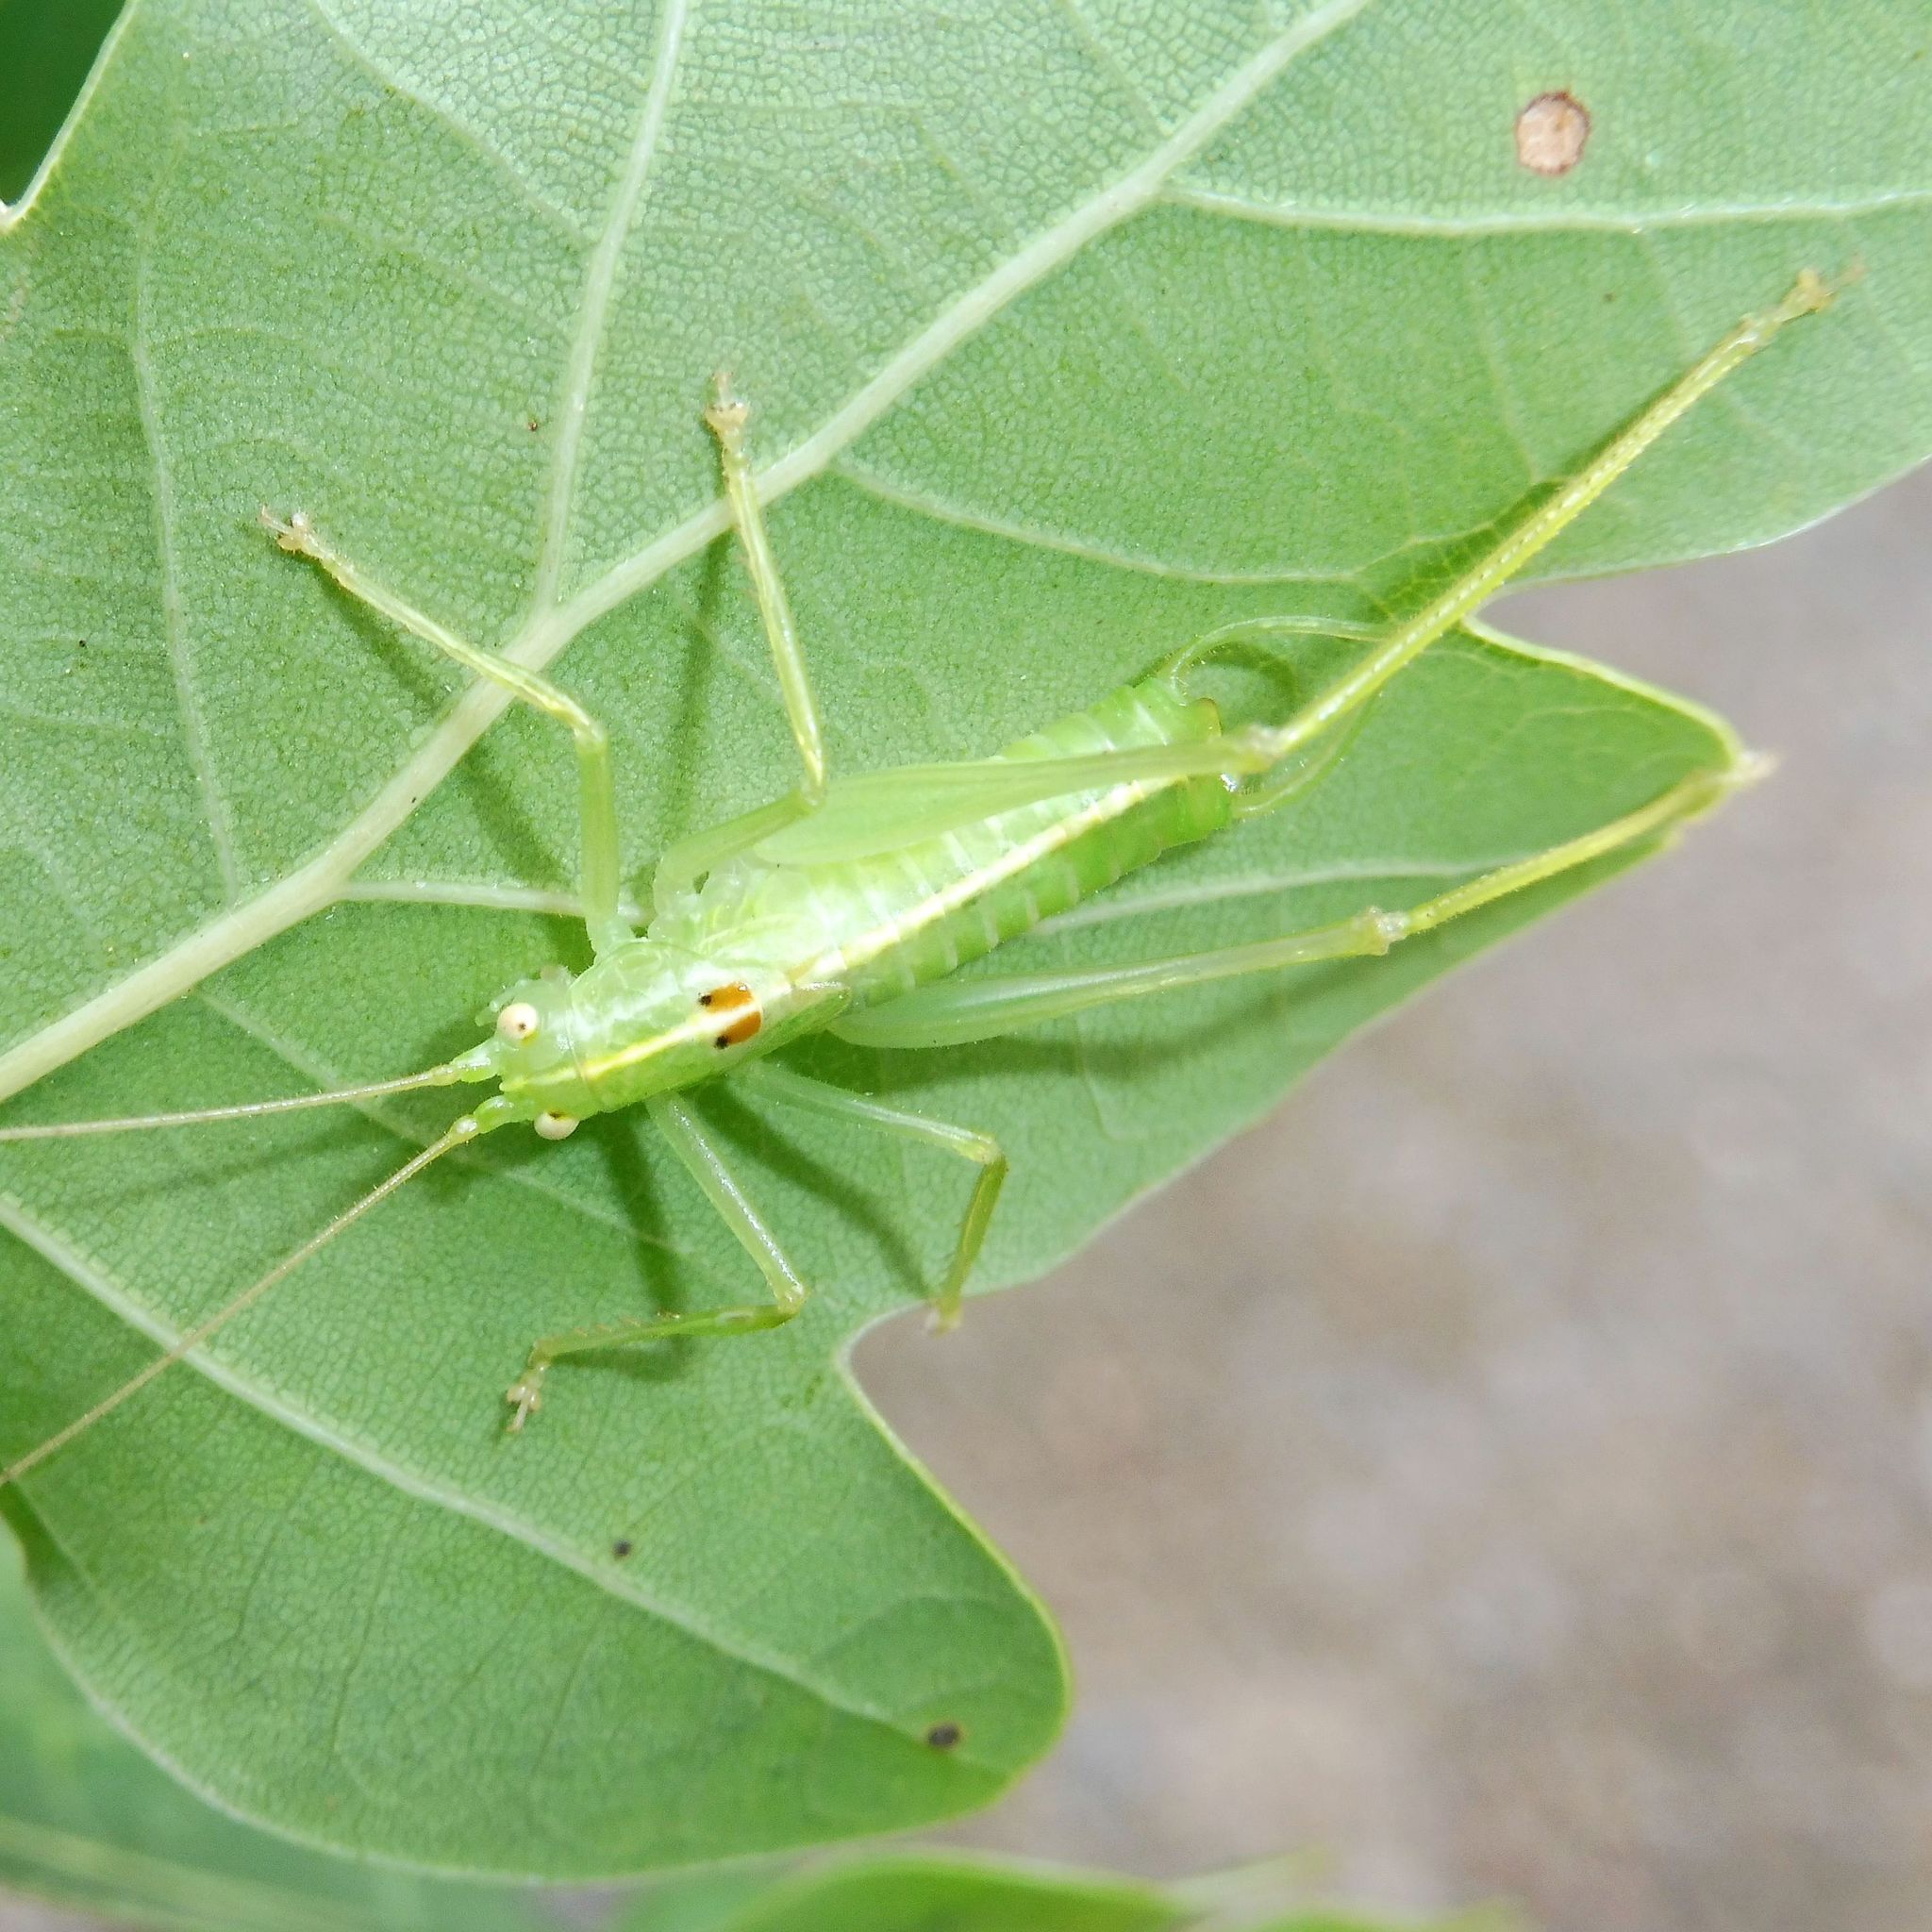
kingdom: Animalia
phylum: Arthropoda
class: Insecta
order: Orthoptera
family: Tettigoniidae
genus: Meconema
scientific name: Meconema meridionale
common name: Southern oak bush-cricket
